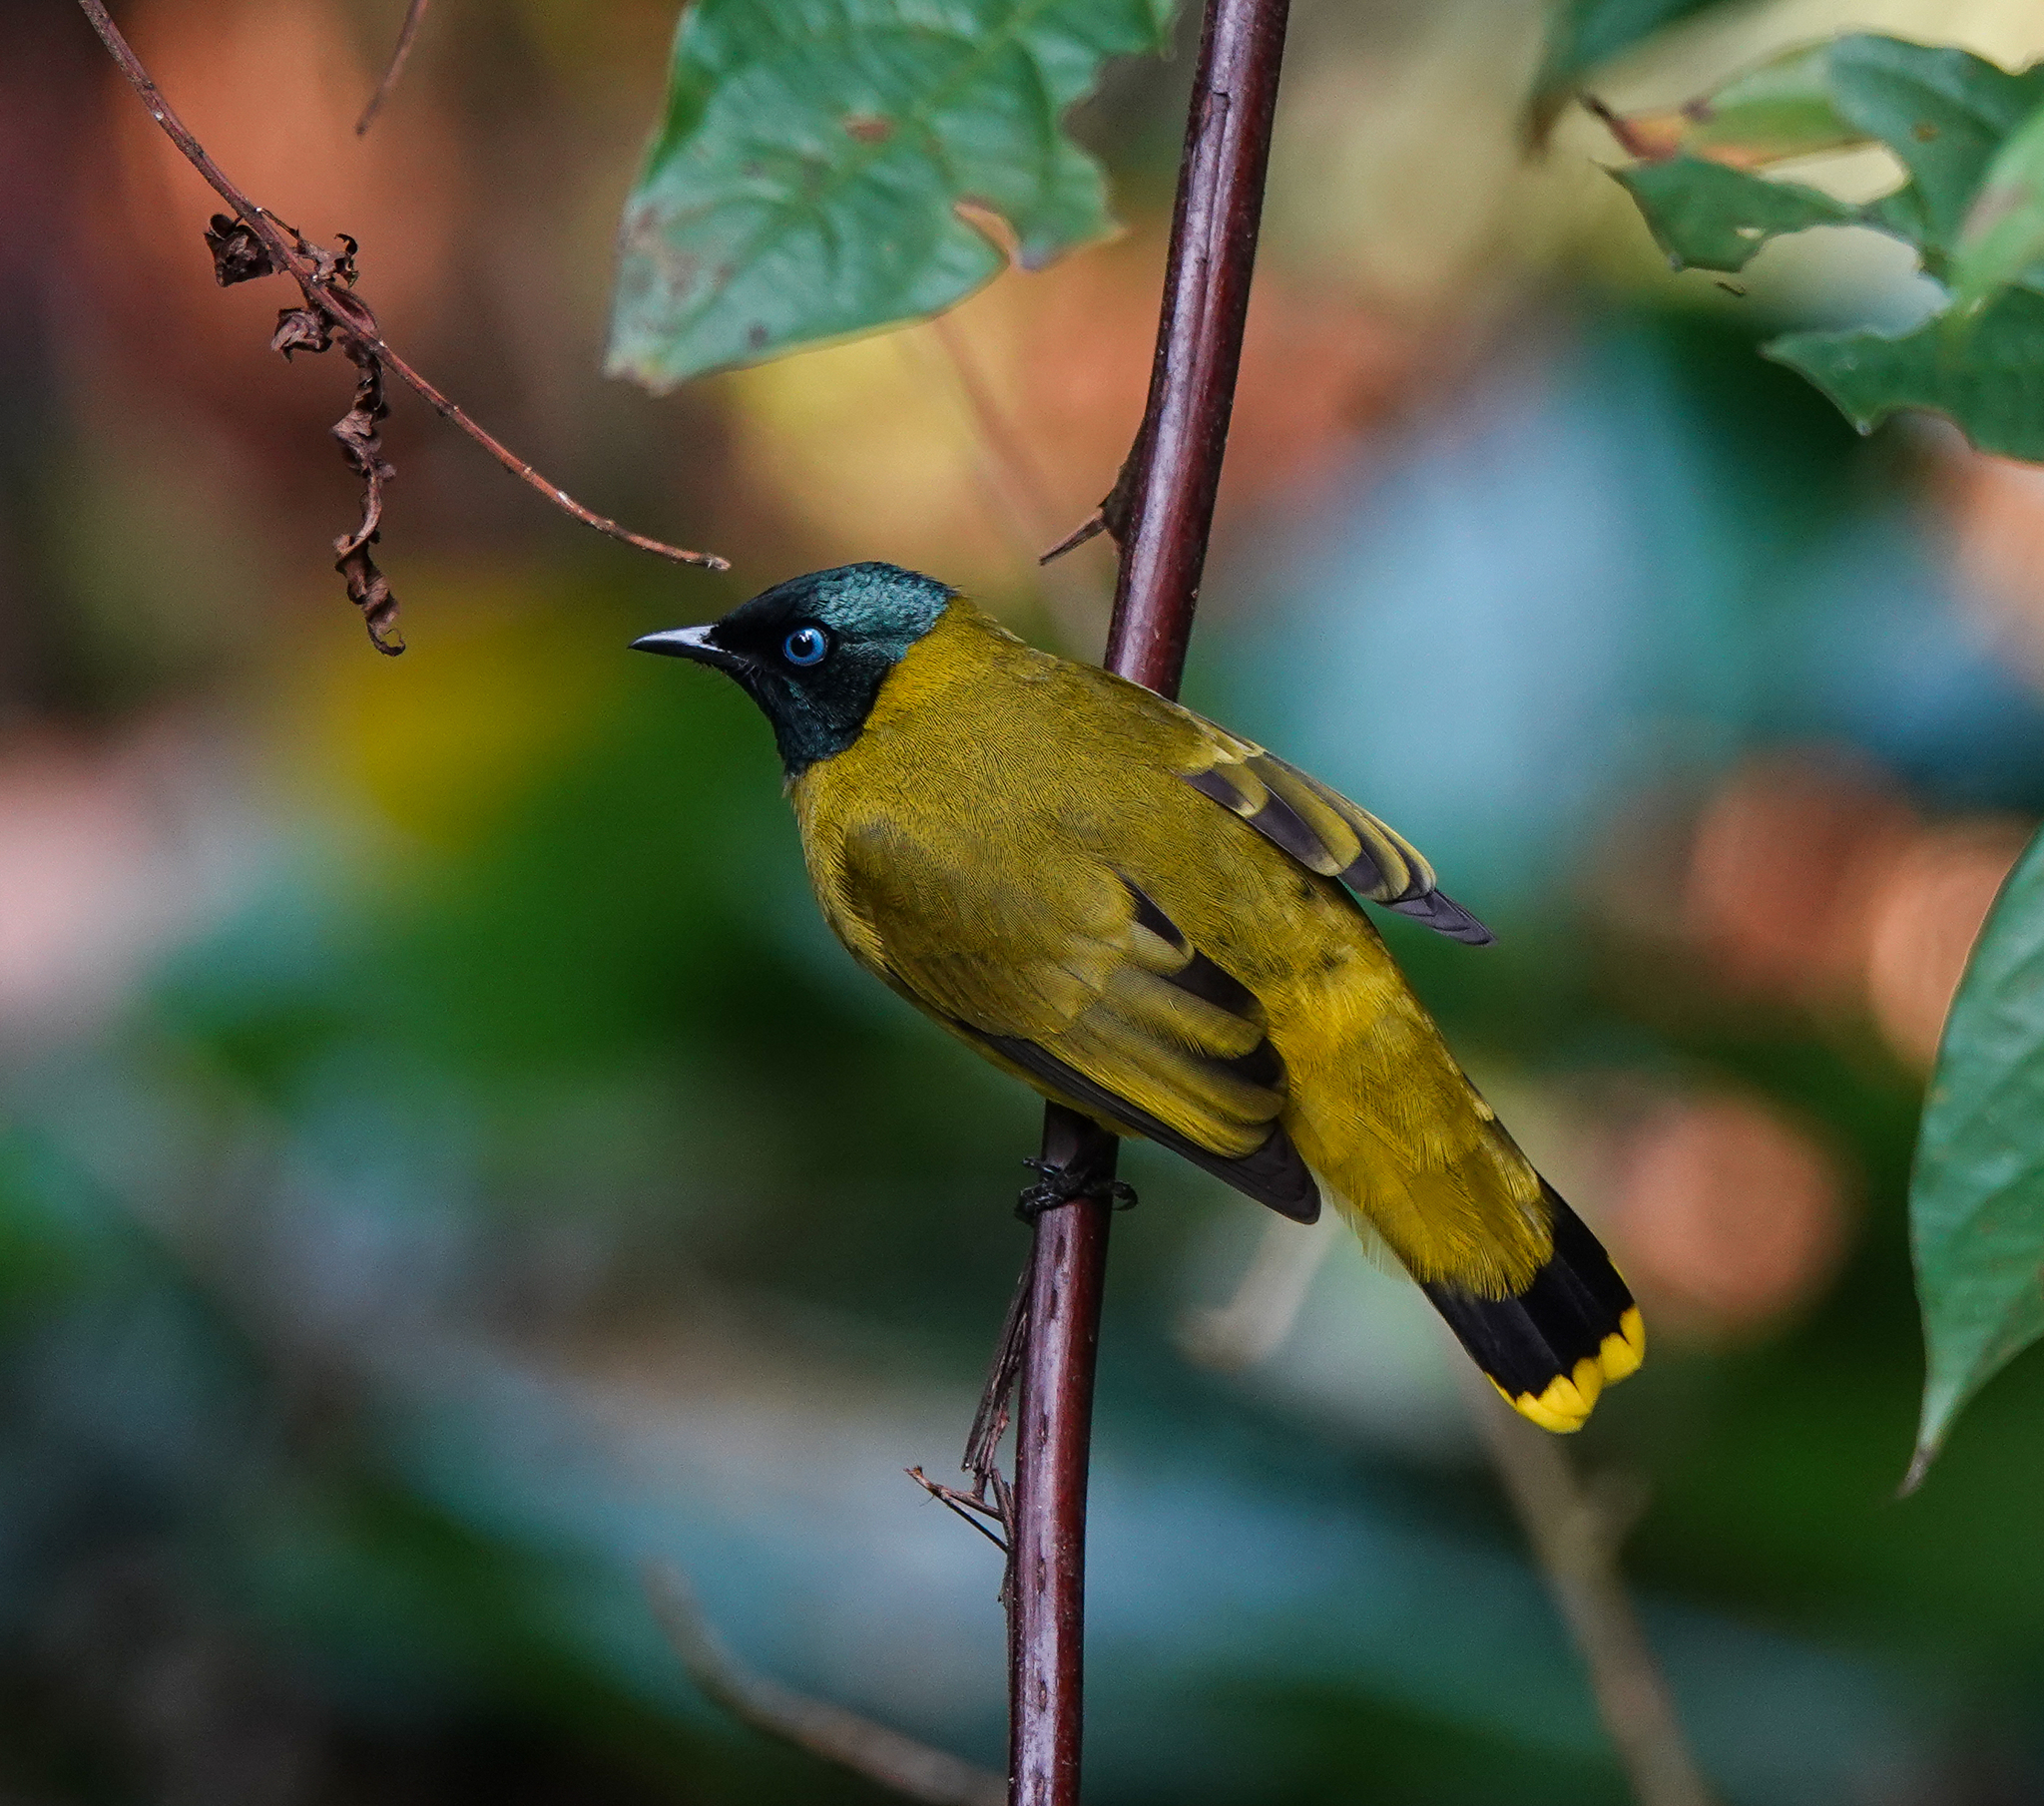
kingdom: Animalia
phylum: Chordata
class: Aves
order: Passeriformes
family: Pycnonotidae
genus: Microtarsus
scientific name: Microtarsus
